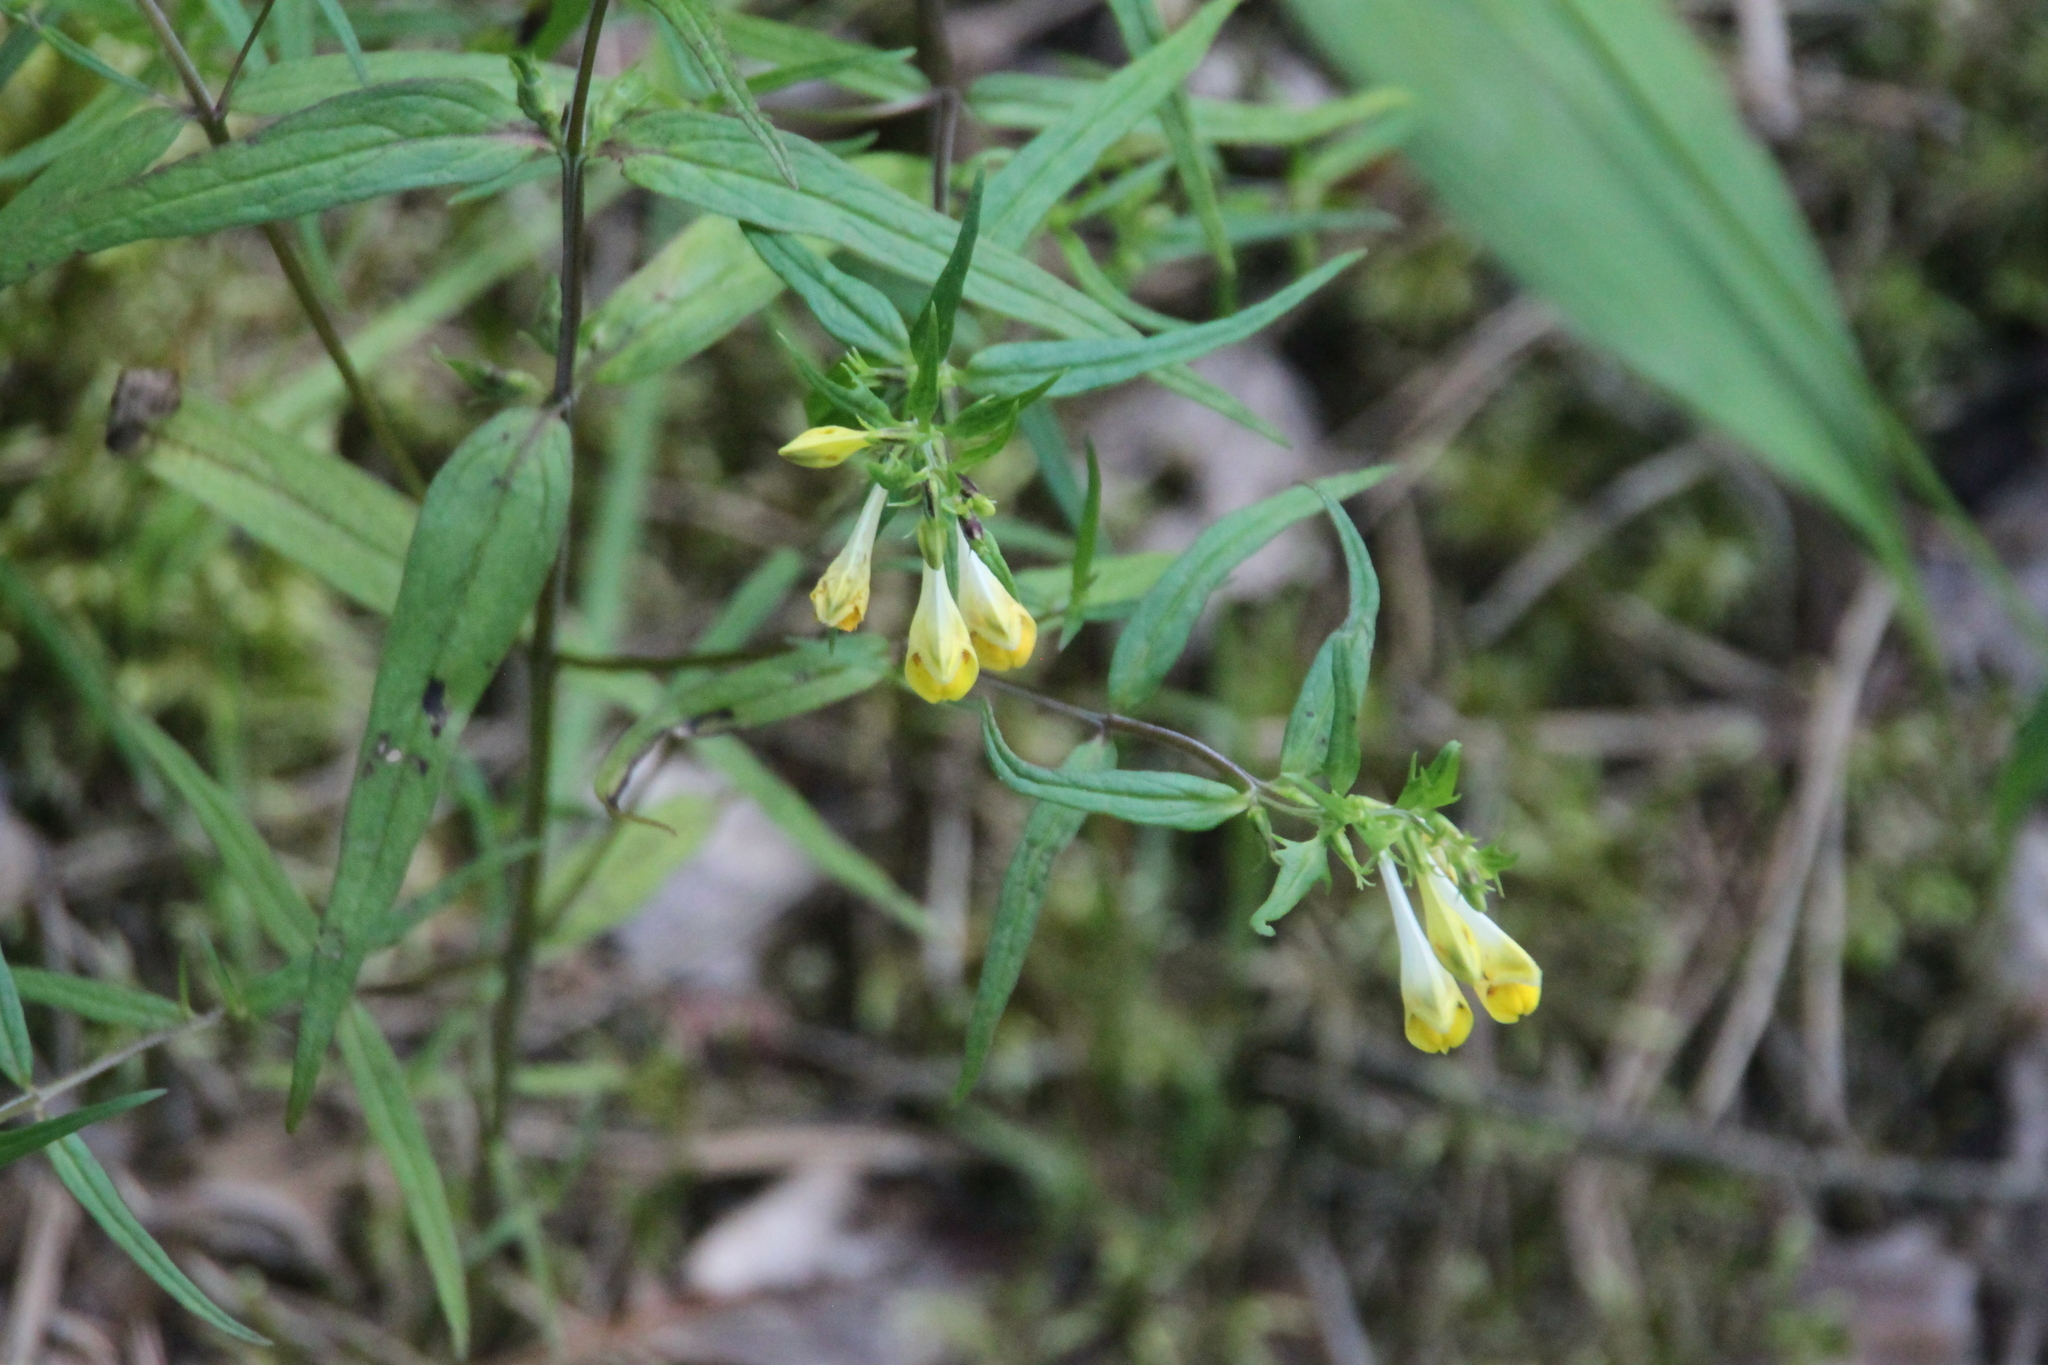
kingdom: Plantae
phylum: Tracheophyta
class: Magnoliopsida
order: Lamiales
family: Orobanchaceae
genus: Melampyrum
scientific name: Melampyrum pratense
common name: Common cow-wheat
